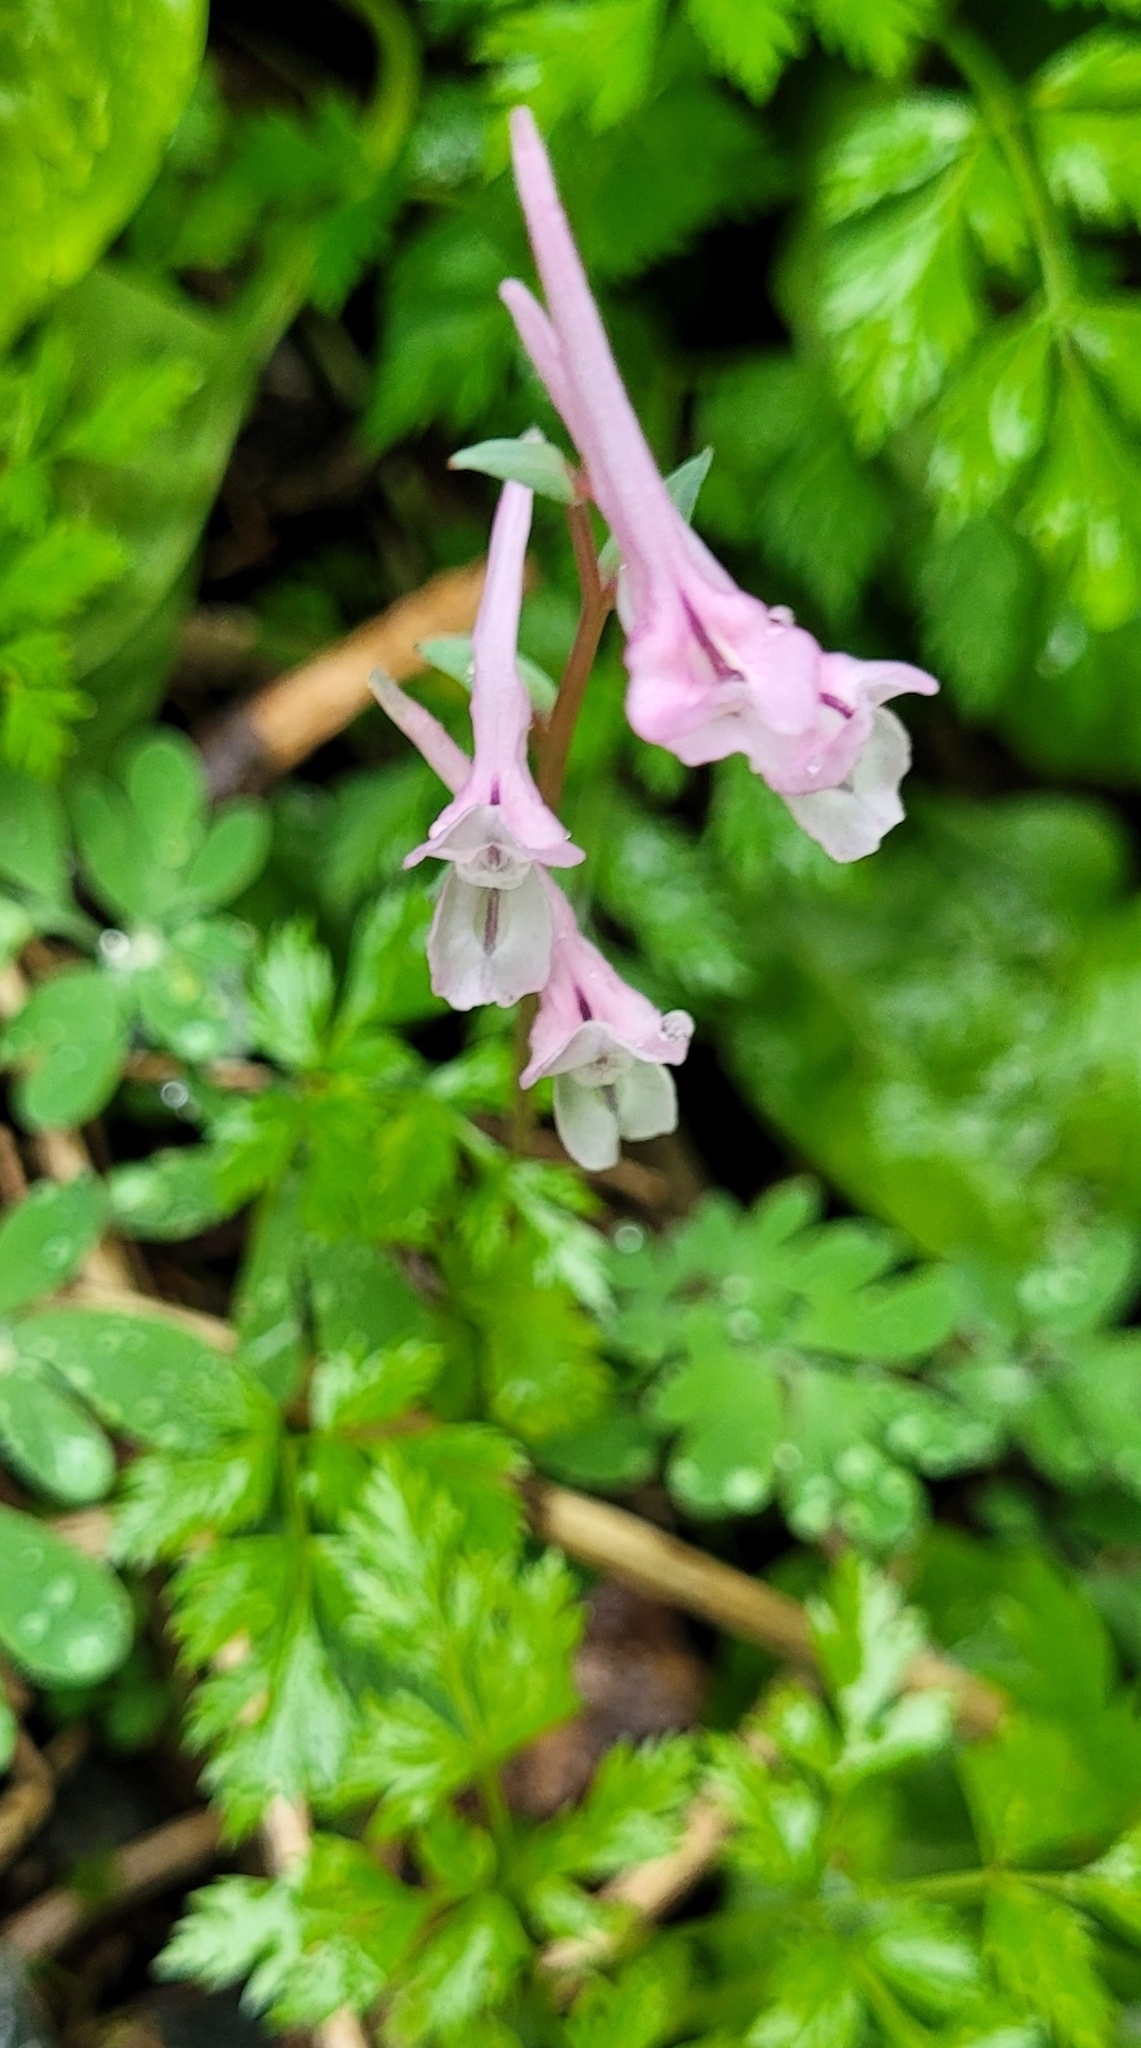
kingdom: Plantae
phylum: Tracheophyta
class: Magnoliopsida
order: Ranunculales
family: Papaveraceae
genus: Corydalis
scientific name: Corydalis glaucescens
